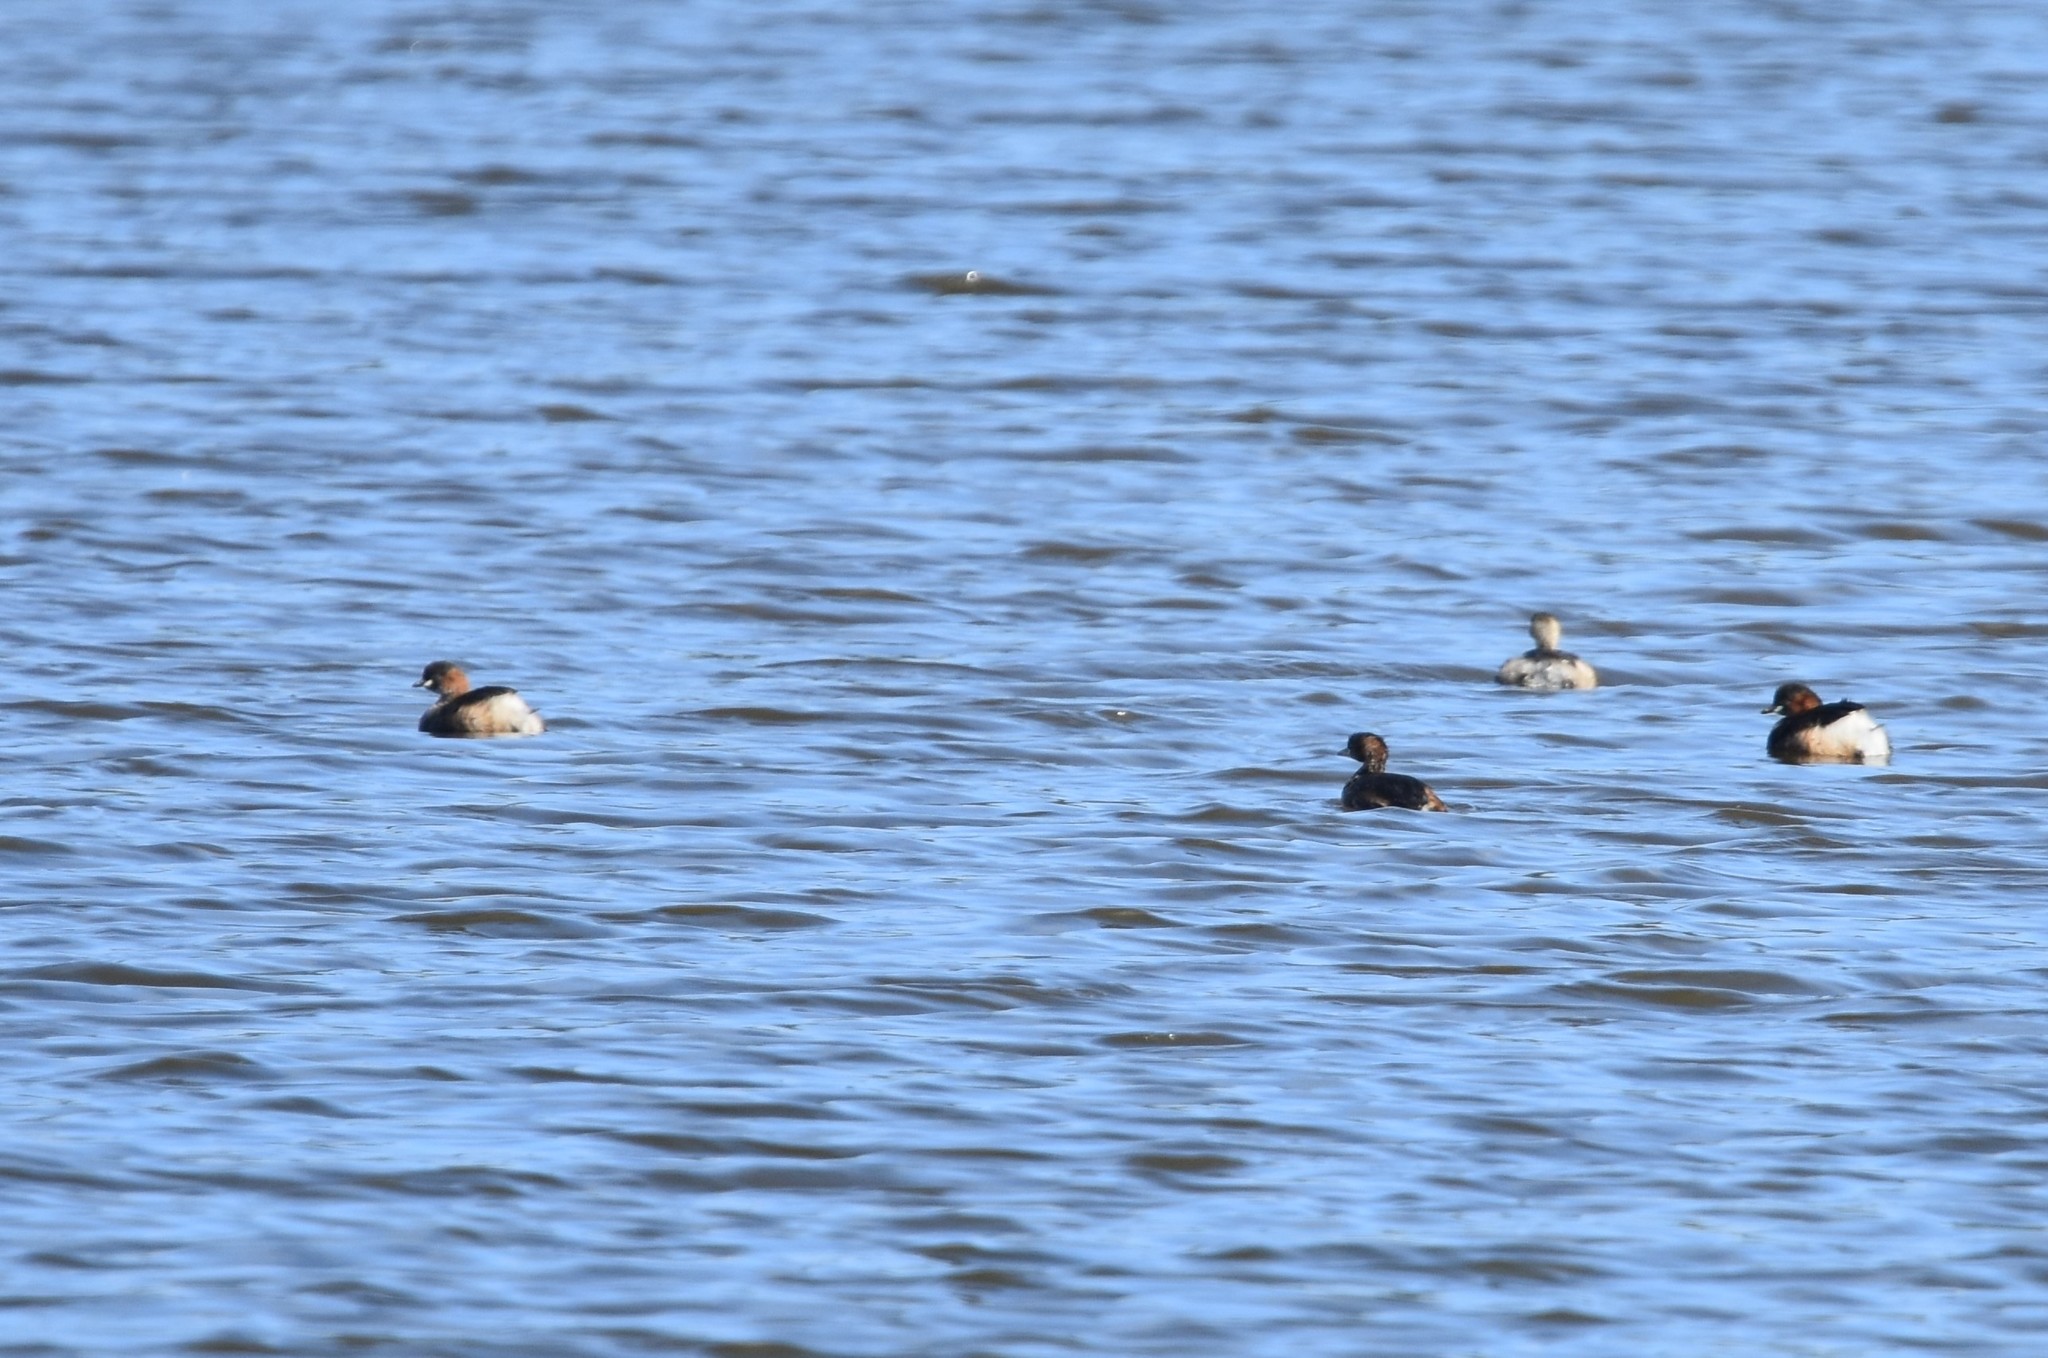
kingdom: Animalia
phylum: Chordata
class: Aves
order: Podicipediformes
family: Podicipedidae
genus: Tachybaptus
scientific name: Tachybaptus ruficollis
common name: Little grebe
